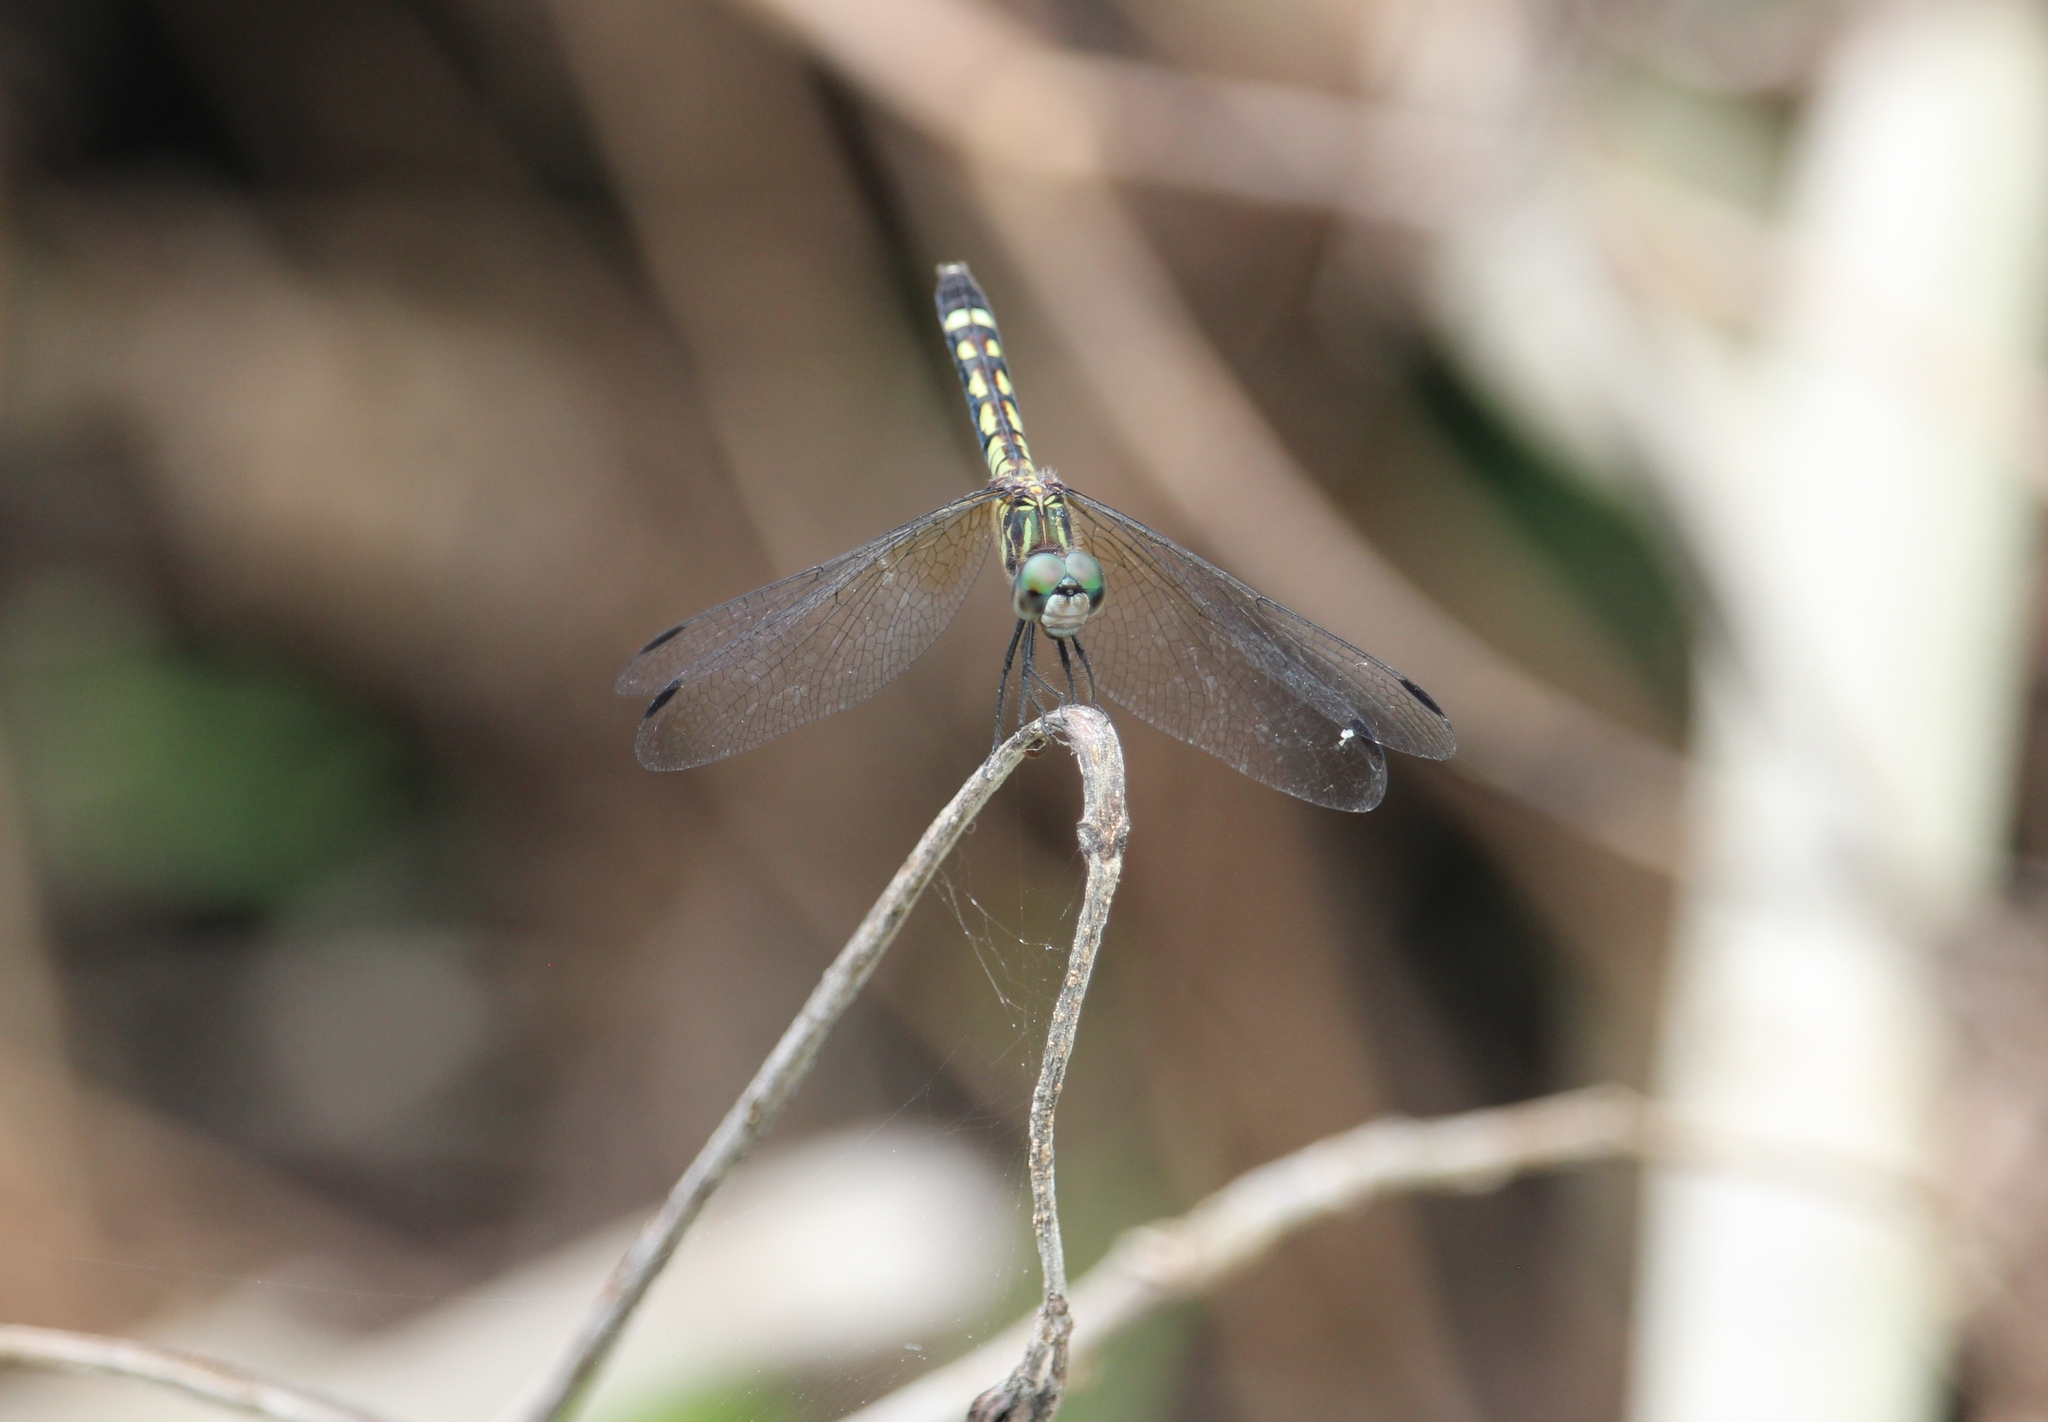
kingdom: Animalia
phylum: Arthropoda
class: Insecta
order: Odonata
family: Libellulidae
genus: Micrathyria
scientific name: Micrathyria debilis
